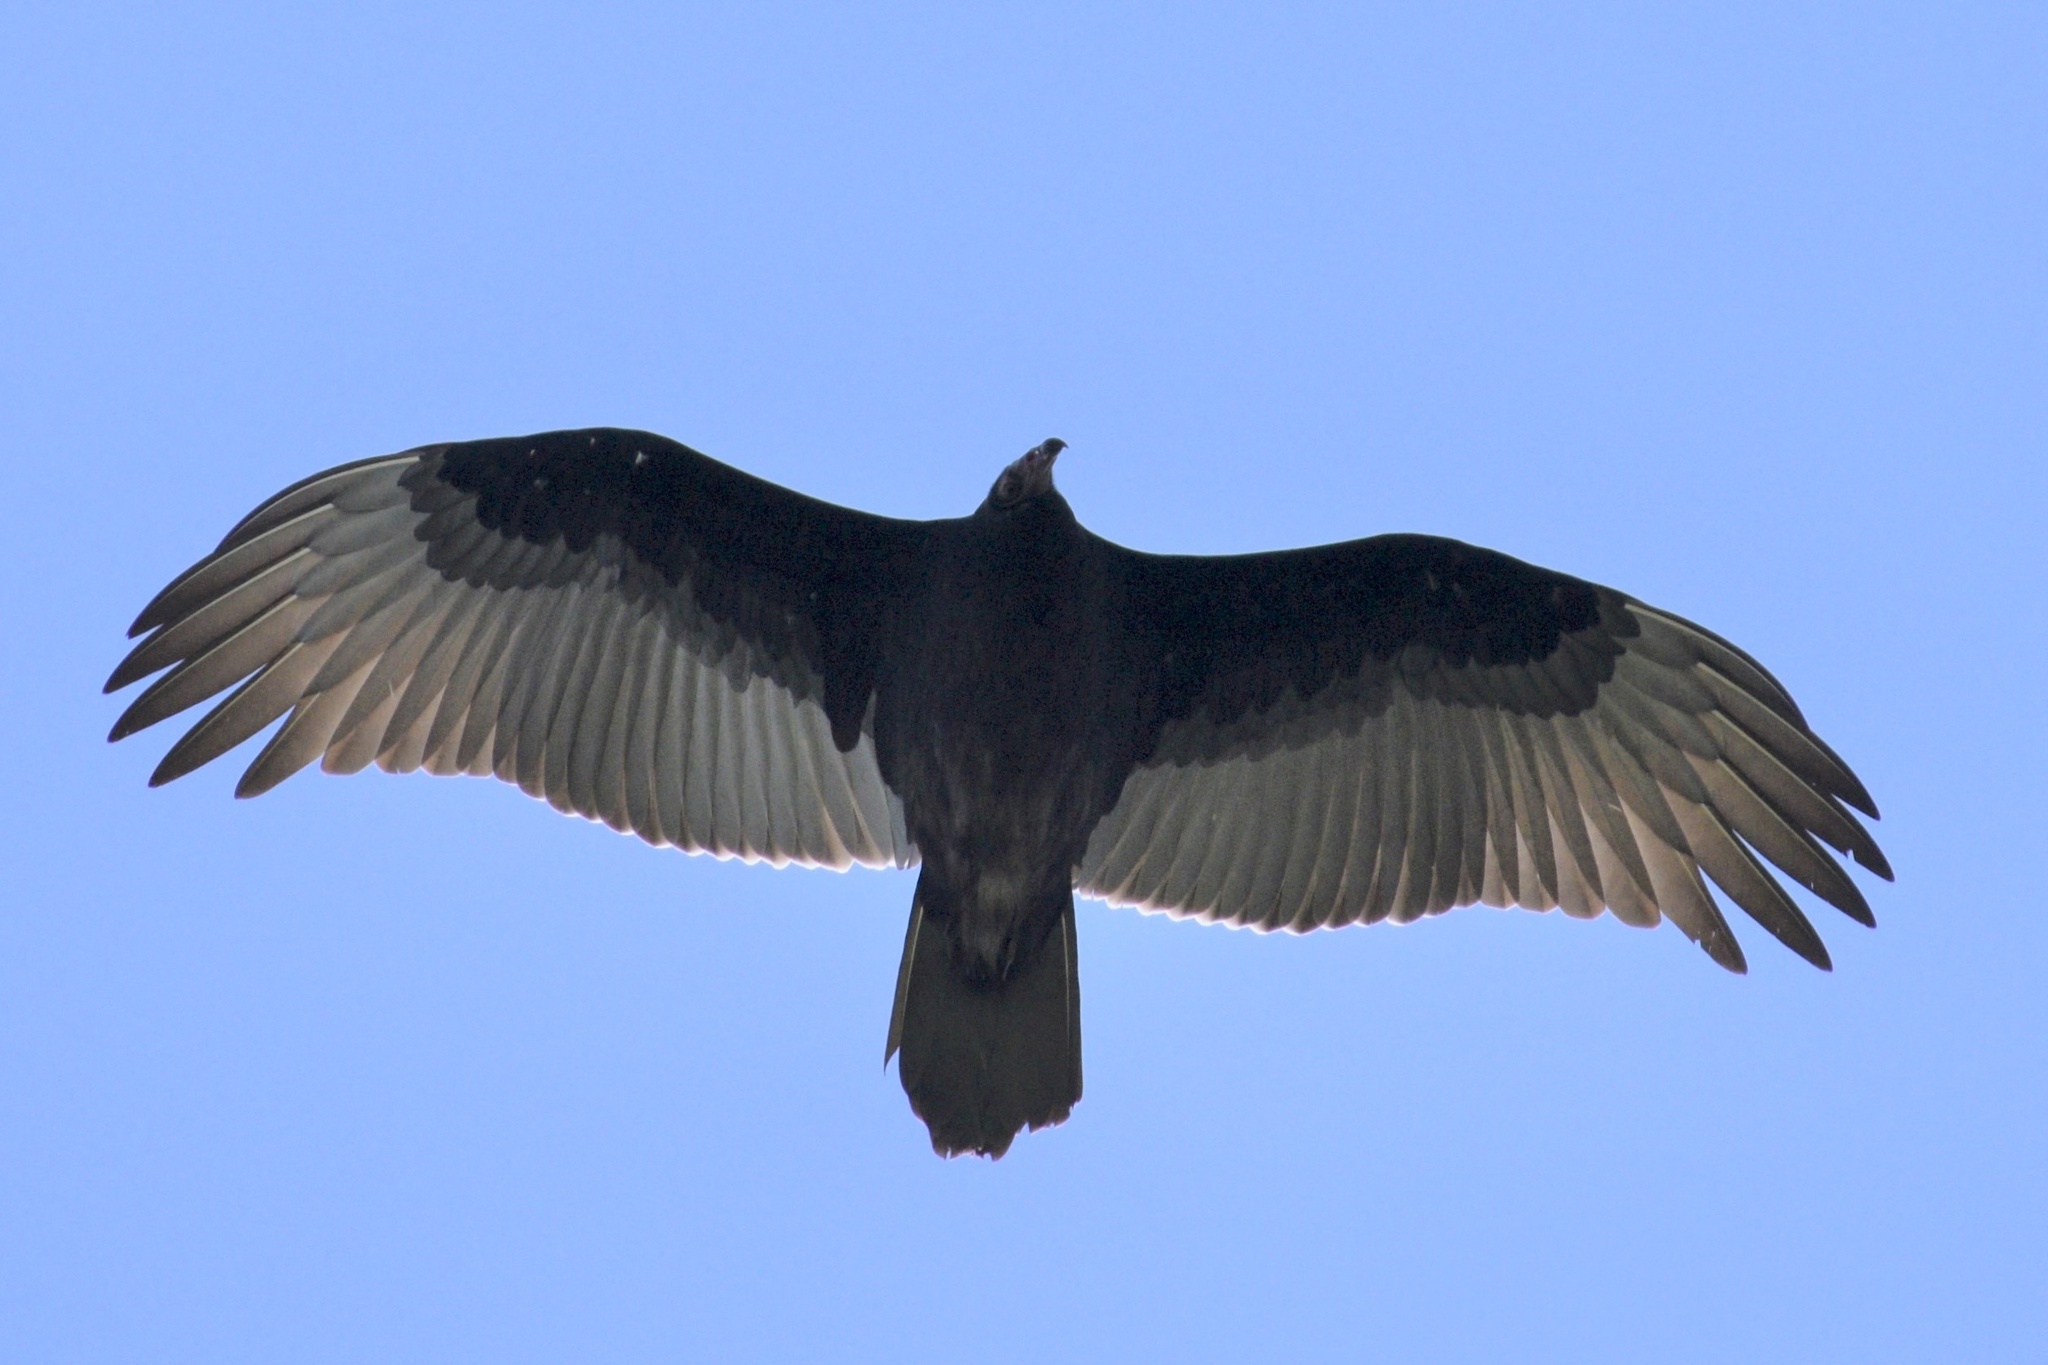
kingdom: Animalia
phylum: Chordata
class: Aves
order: Accipitriformes
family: Cathartidae
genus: Cathartes
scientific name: Cathartes aura
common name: Turkey vulture
